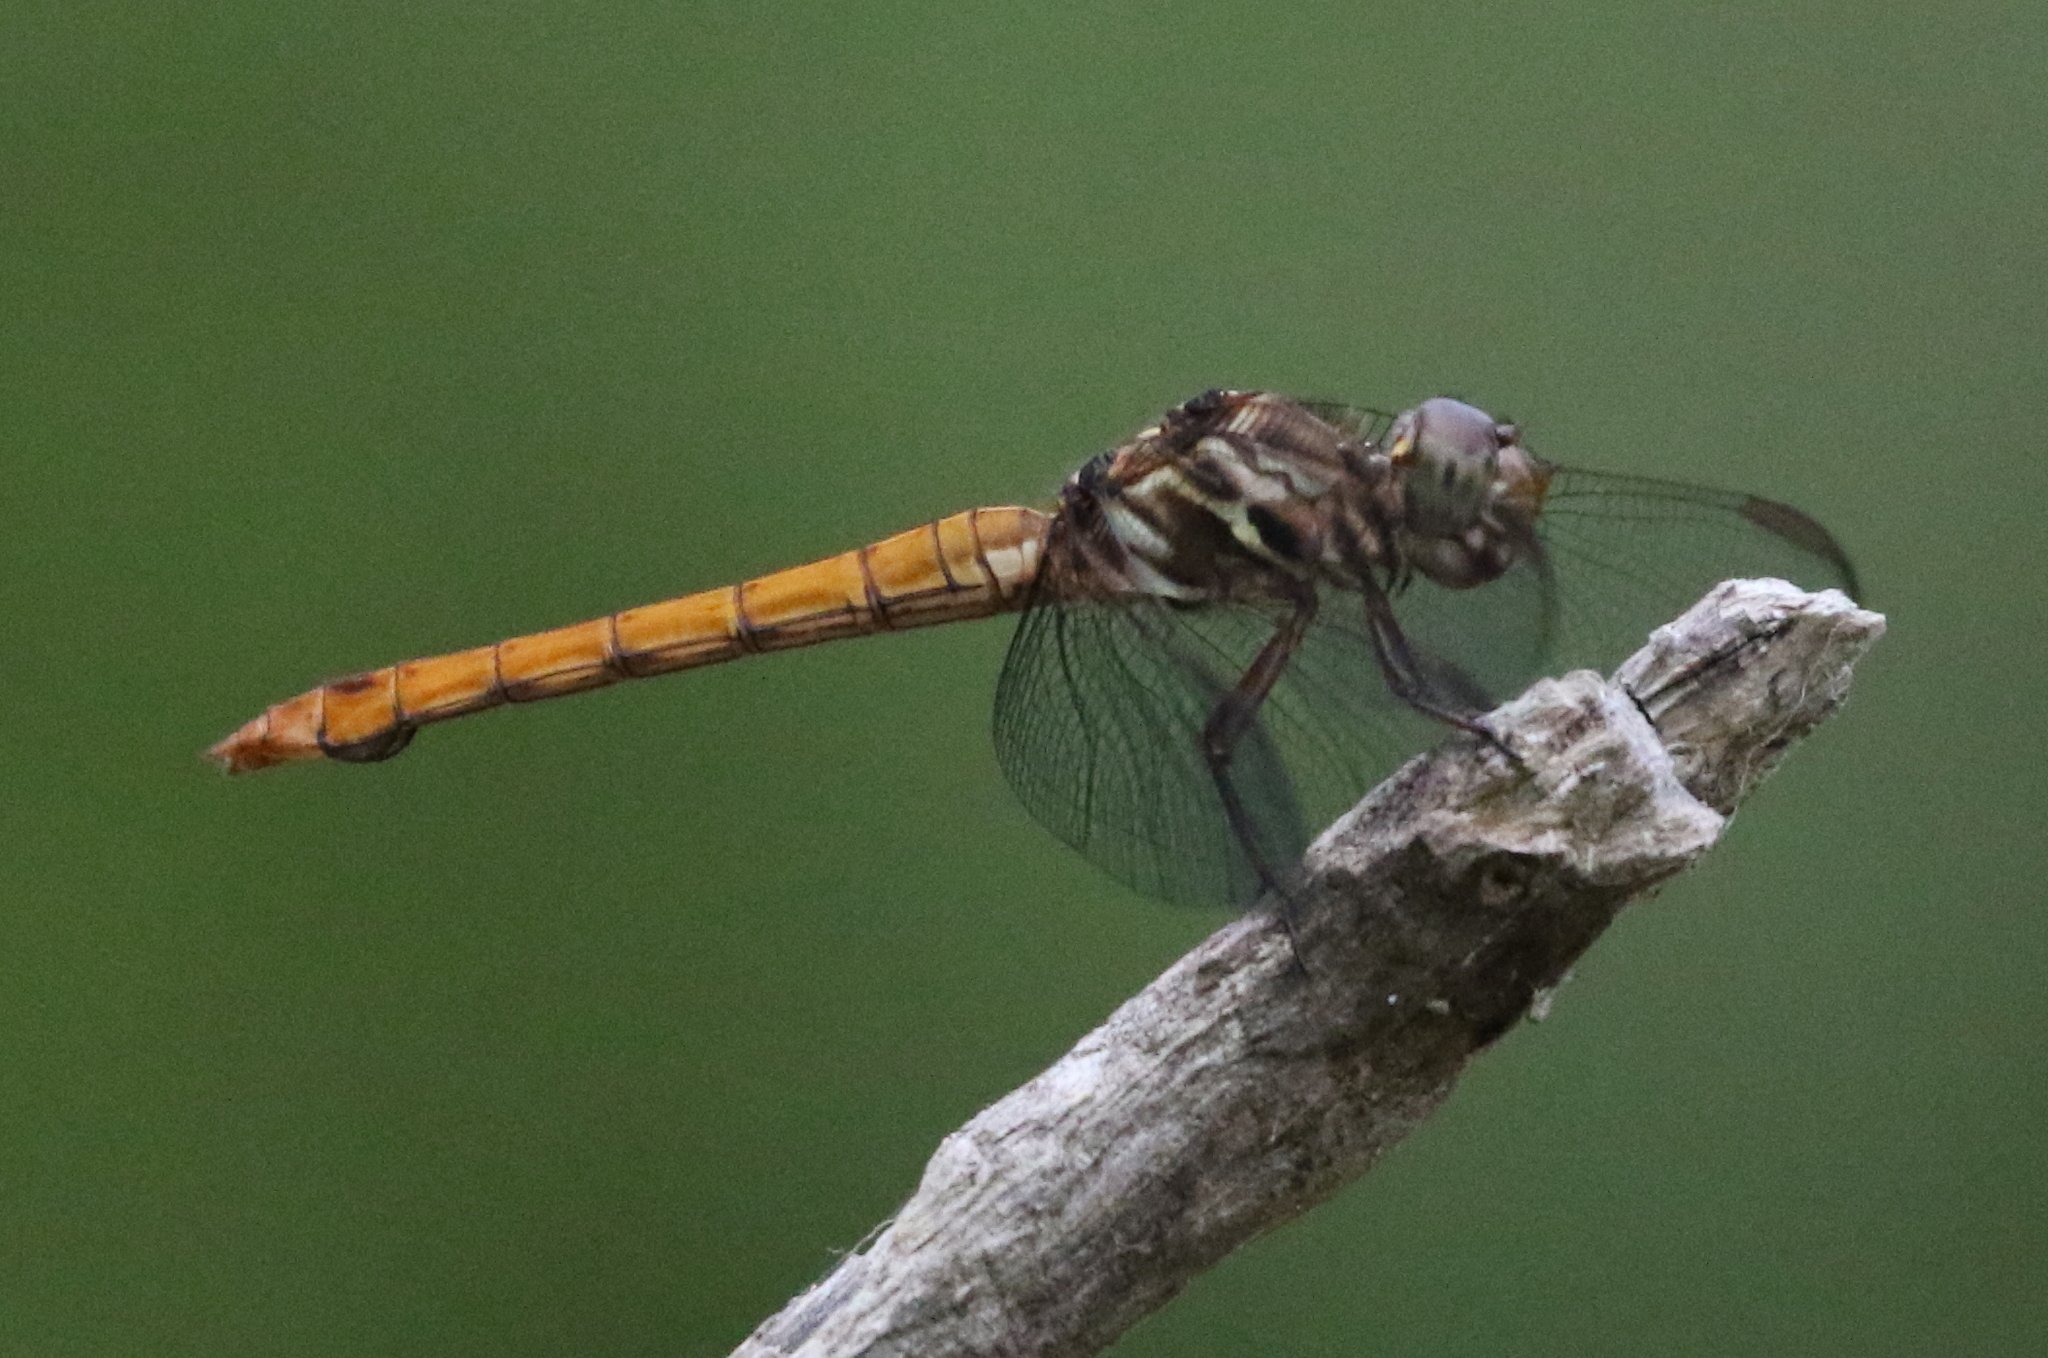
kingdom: Animalia
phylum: Arthropoda
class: Insecta
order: Odonata
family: Libellulidae
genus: Orthemis
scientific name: Orthemis ferruginea
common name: Roseate skimmer
